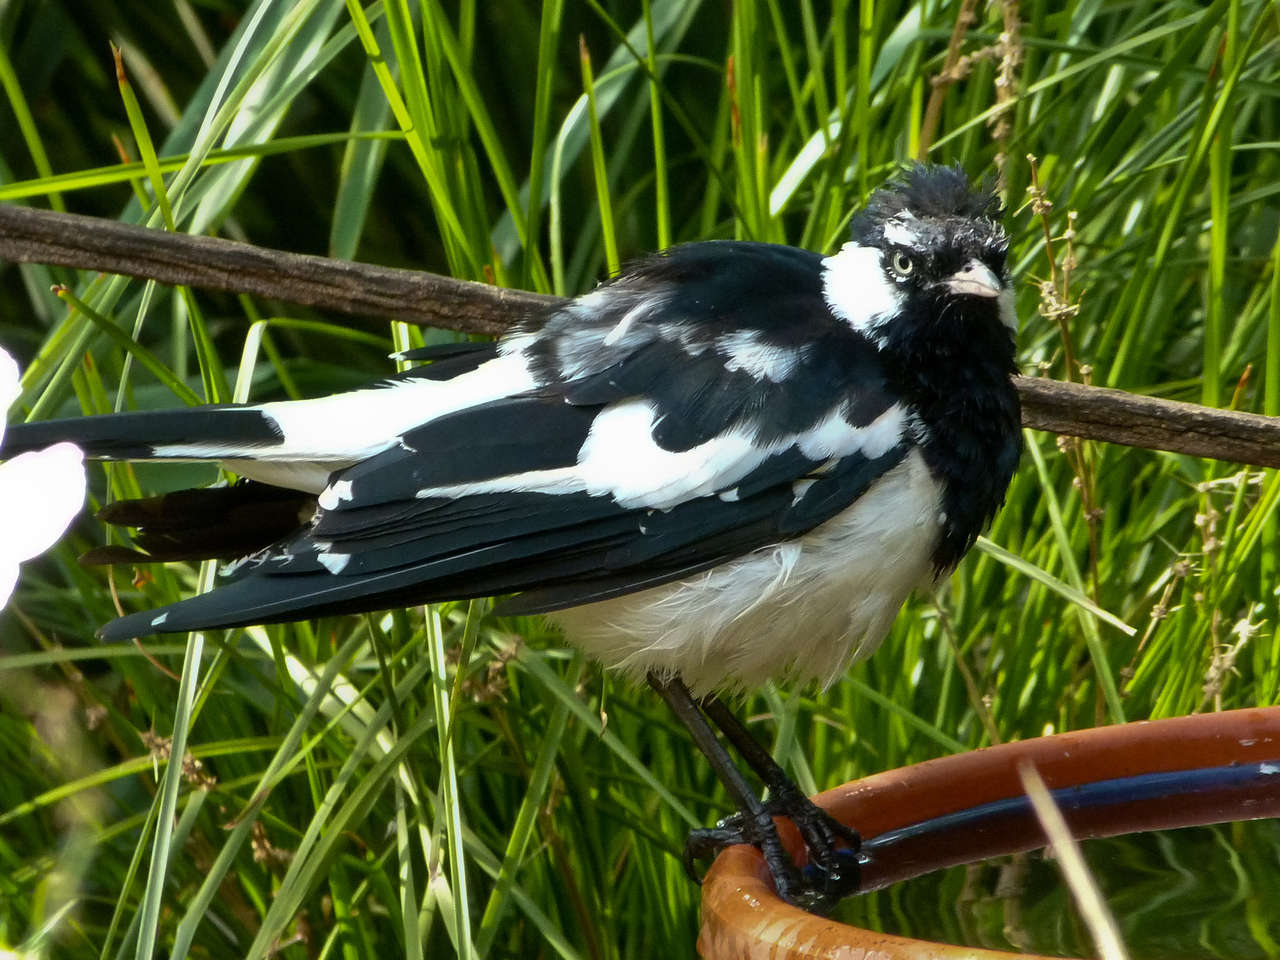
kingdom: Animalia
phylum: Chordata
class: Aves
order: Passeriformes
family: Monarchidae
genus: Grallina
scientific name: Grallina cyanoleuca
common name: Magpie-lark
